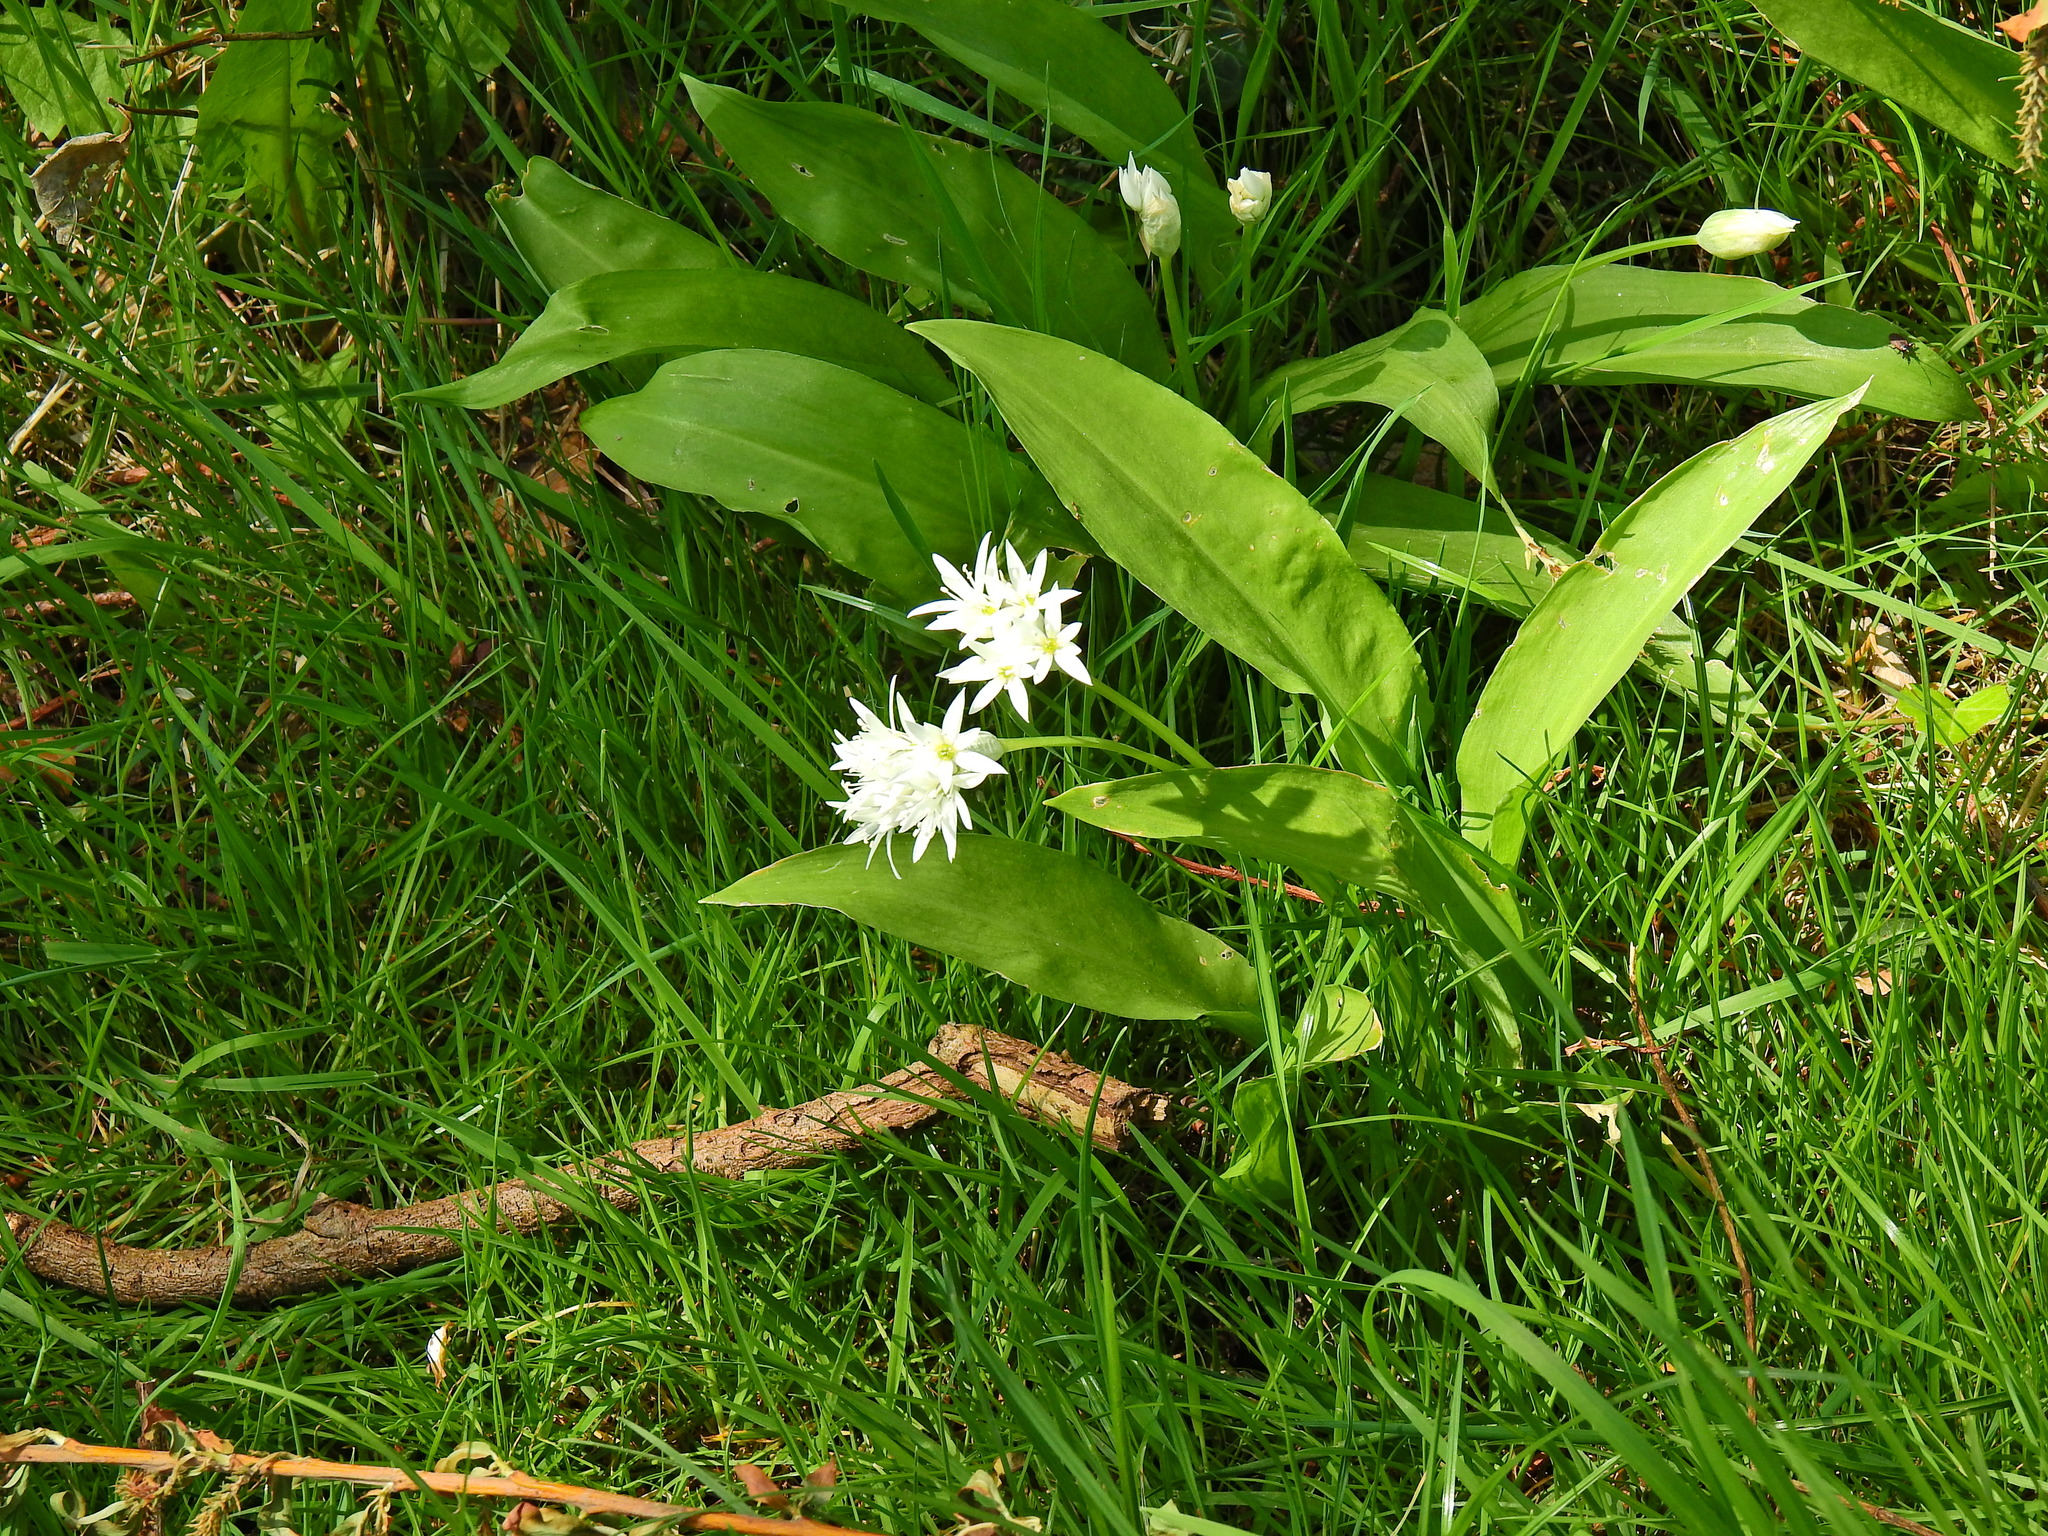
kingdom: Plantae
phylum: Tracheophyta
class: Liliopsida
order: Asparagales
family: Amaryllidaceae
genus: Allium
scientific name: Allium ursinum
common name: Ramsons
